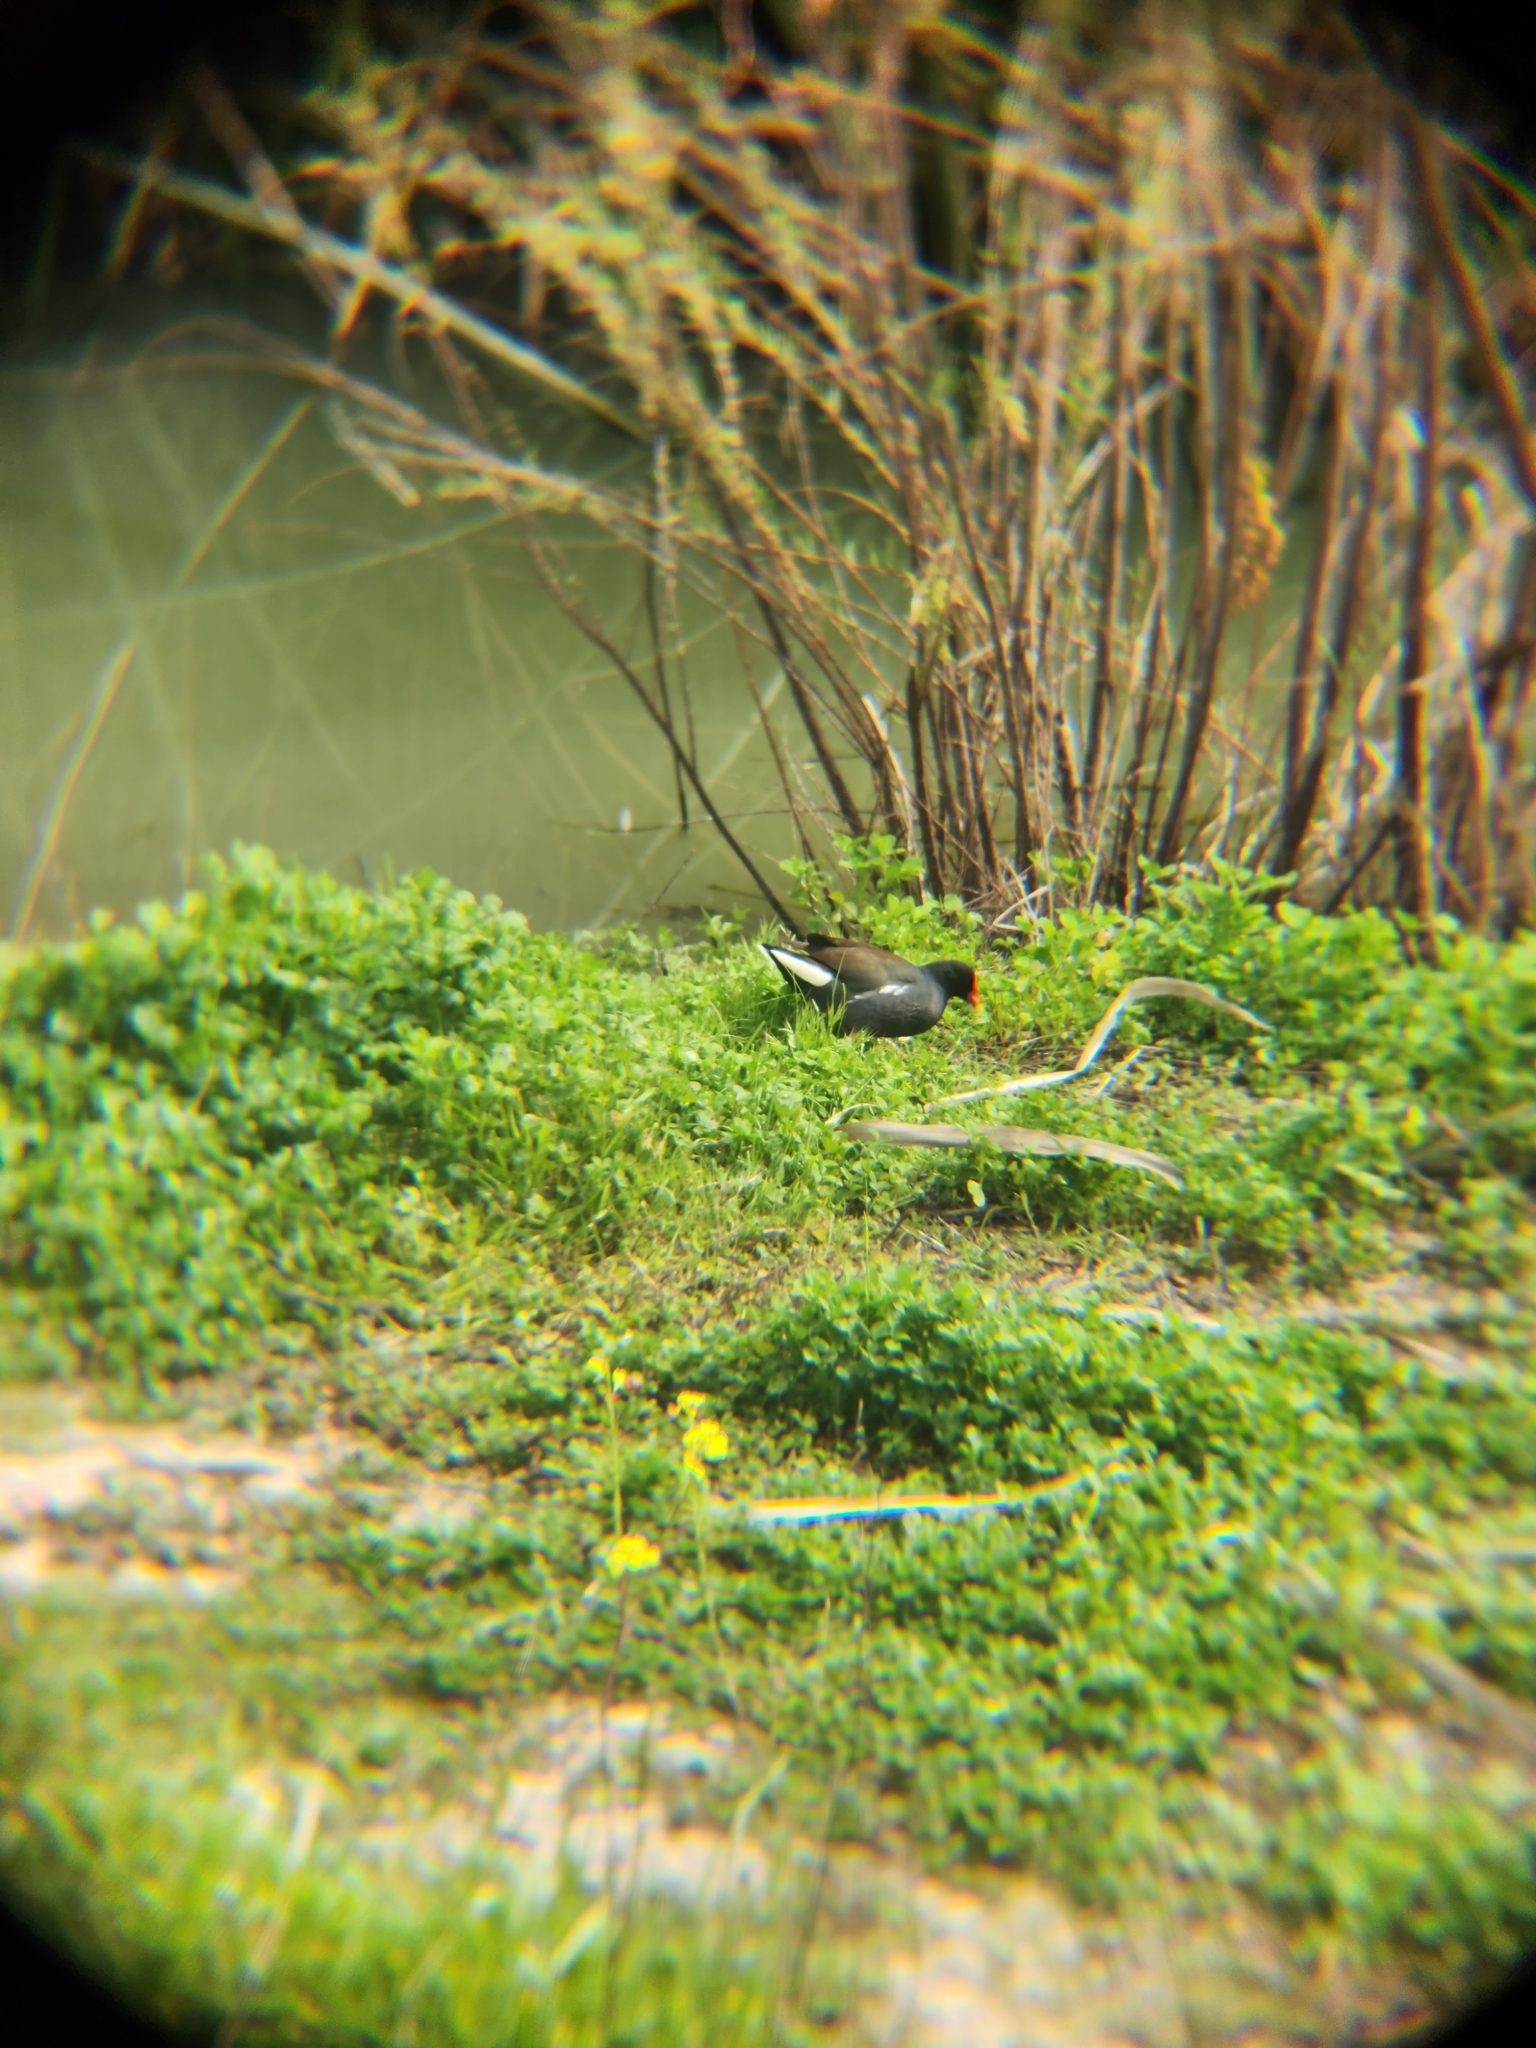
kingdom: Animalia
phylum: Chordata
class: Aves
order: Gruiformes
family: Rallidae
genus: Gallinula
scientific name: Gallinula chloropus
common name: Common moorhen
